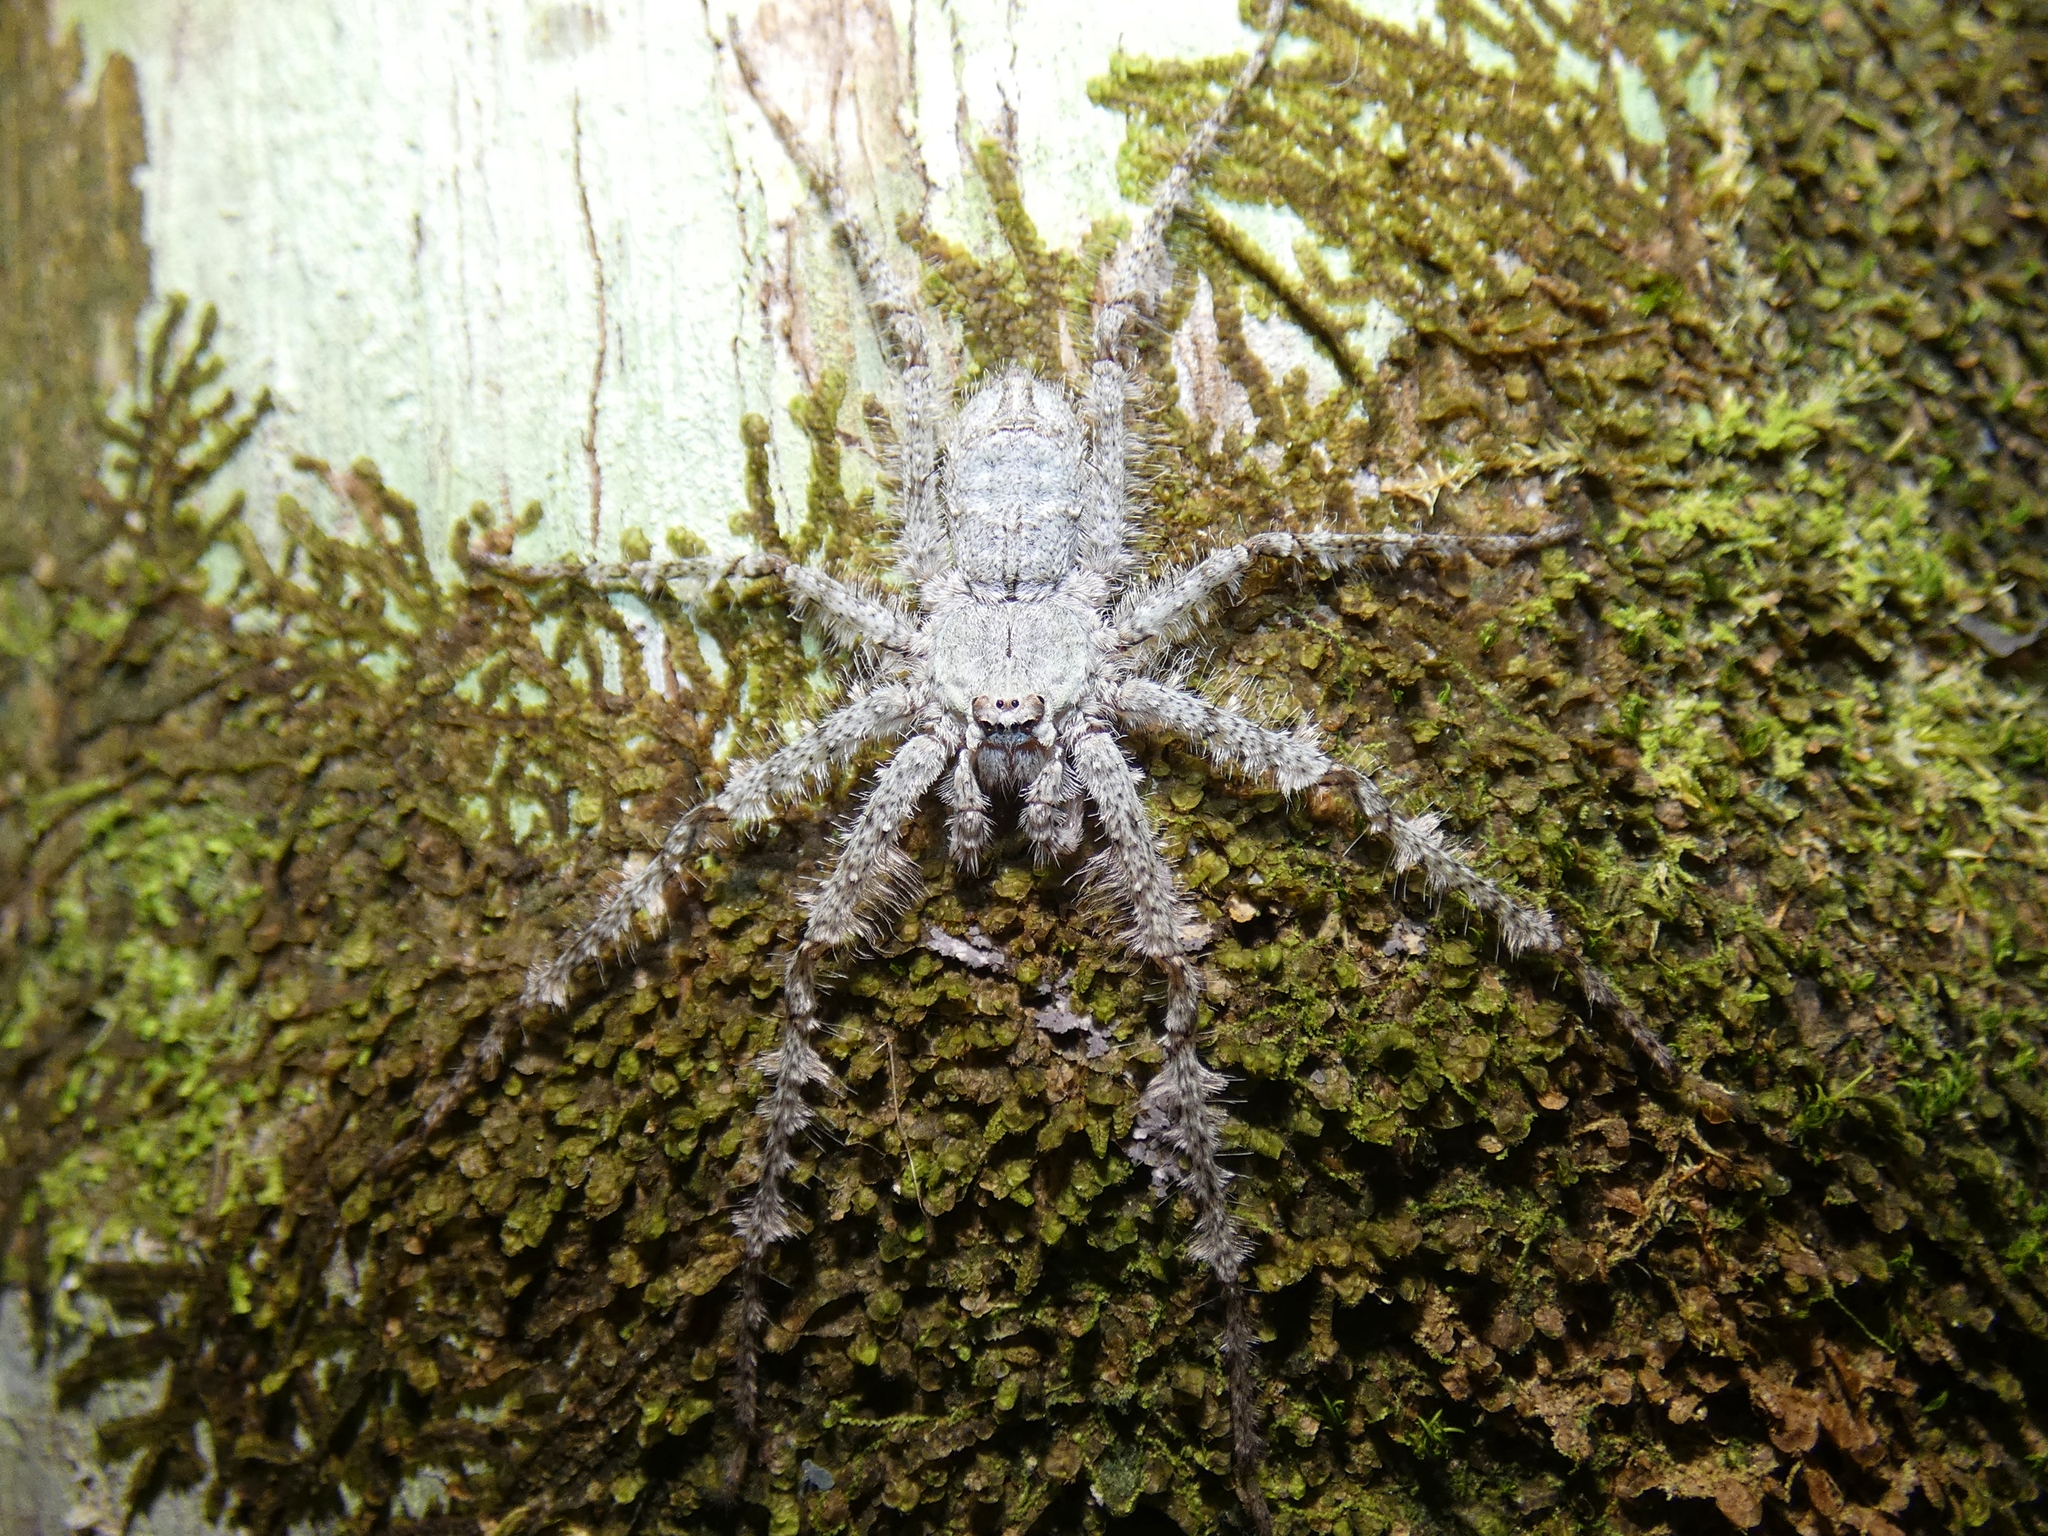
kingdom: Animalia
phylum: Arthropoda
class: Arachnida
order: Araneae
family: Sparassidae
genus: Pandercetes
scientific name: Pandercetes gracilis
